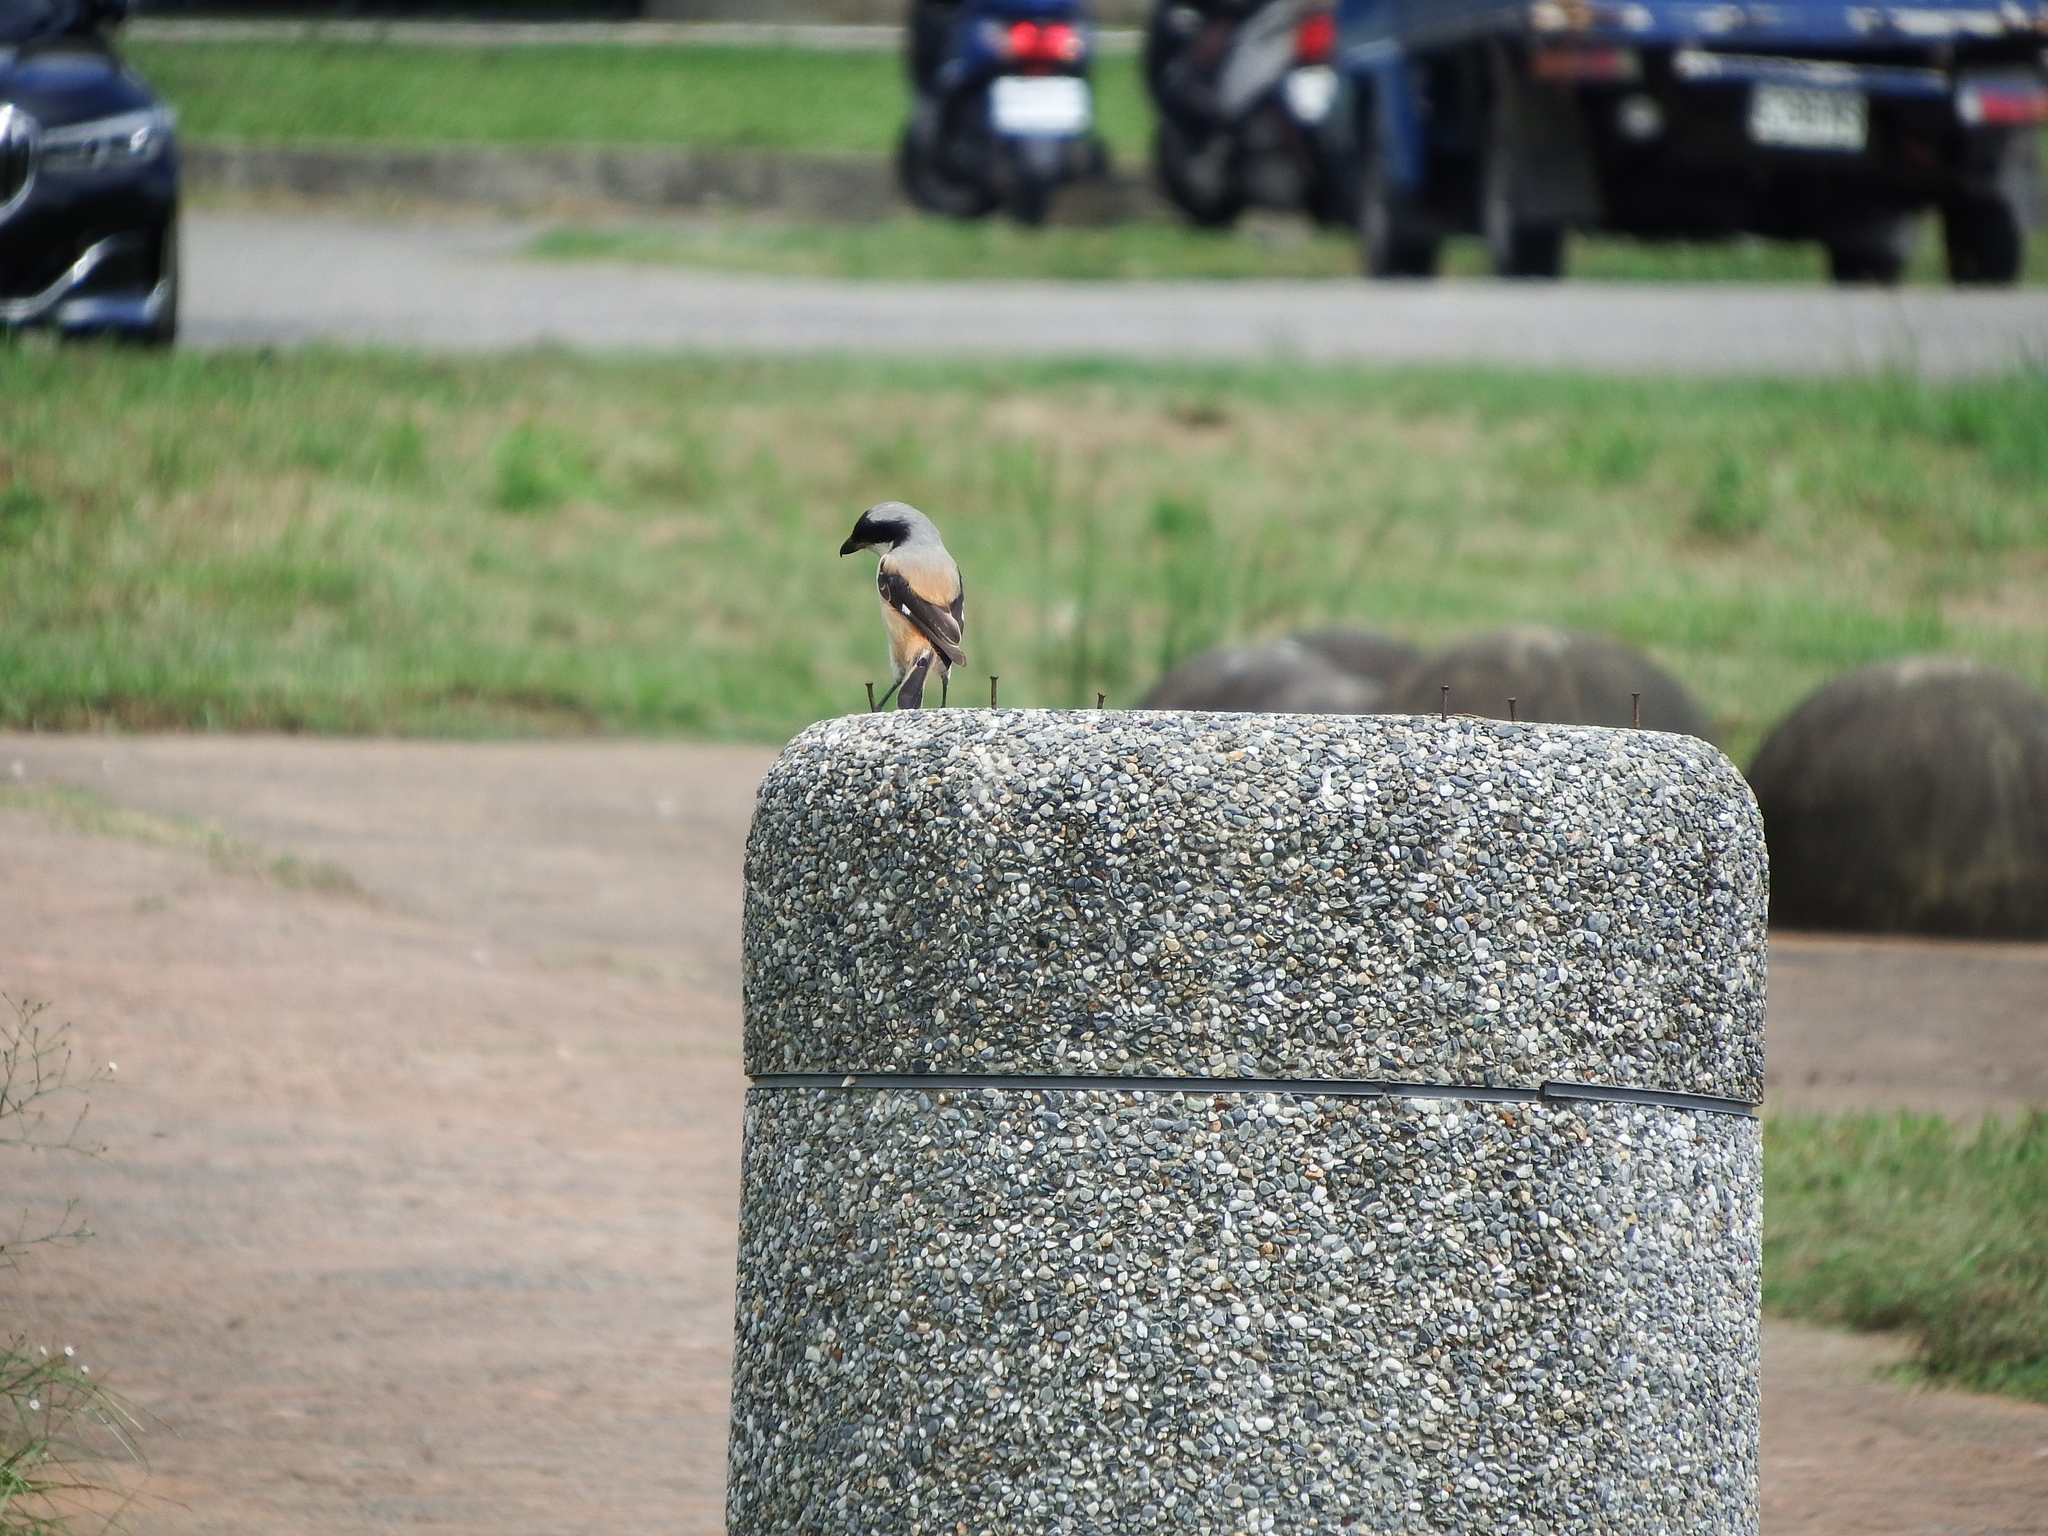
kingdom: Animalia
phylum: Chordata
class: Aves
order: Passeriformes
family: Laniidae
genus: Lanius
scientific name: Lanius schach
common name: Long-tailed shrike
